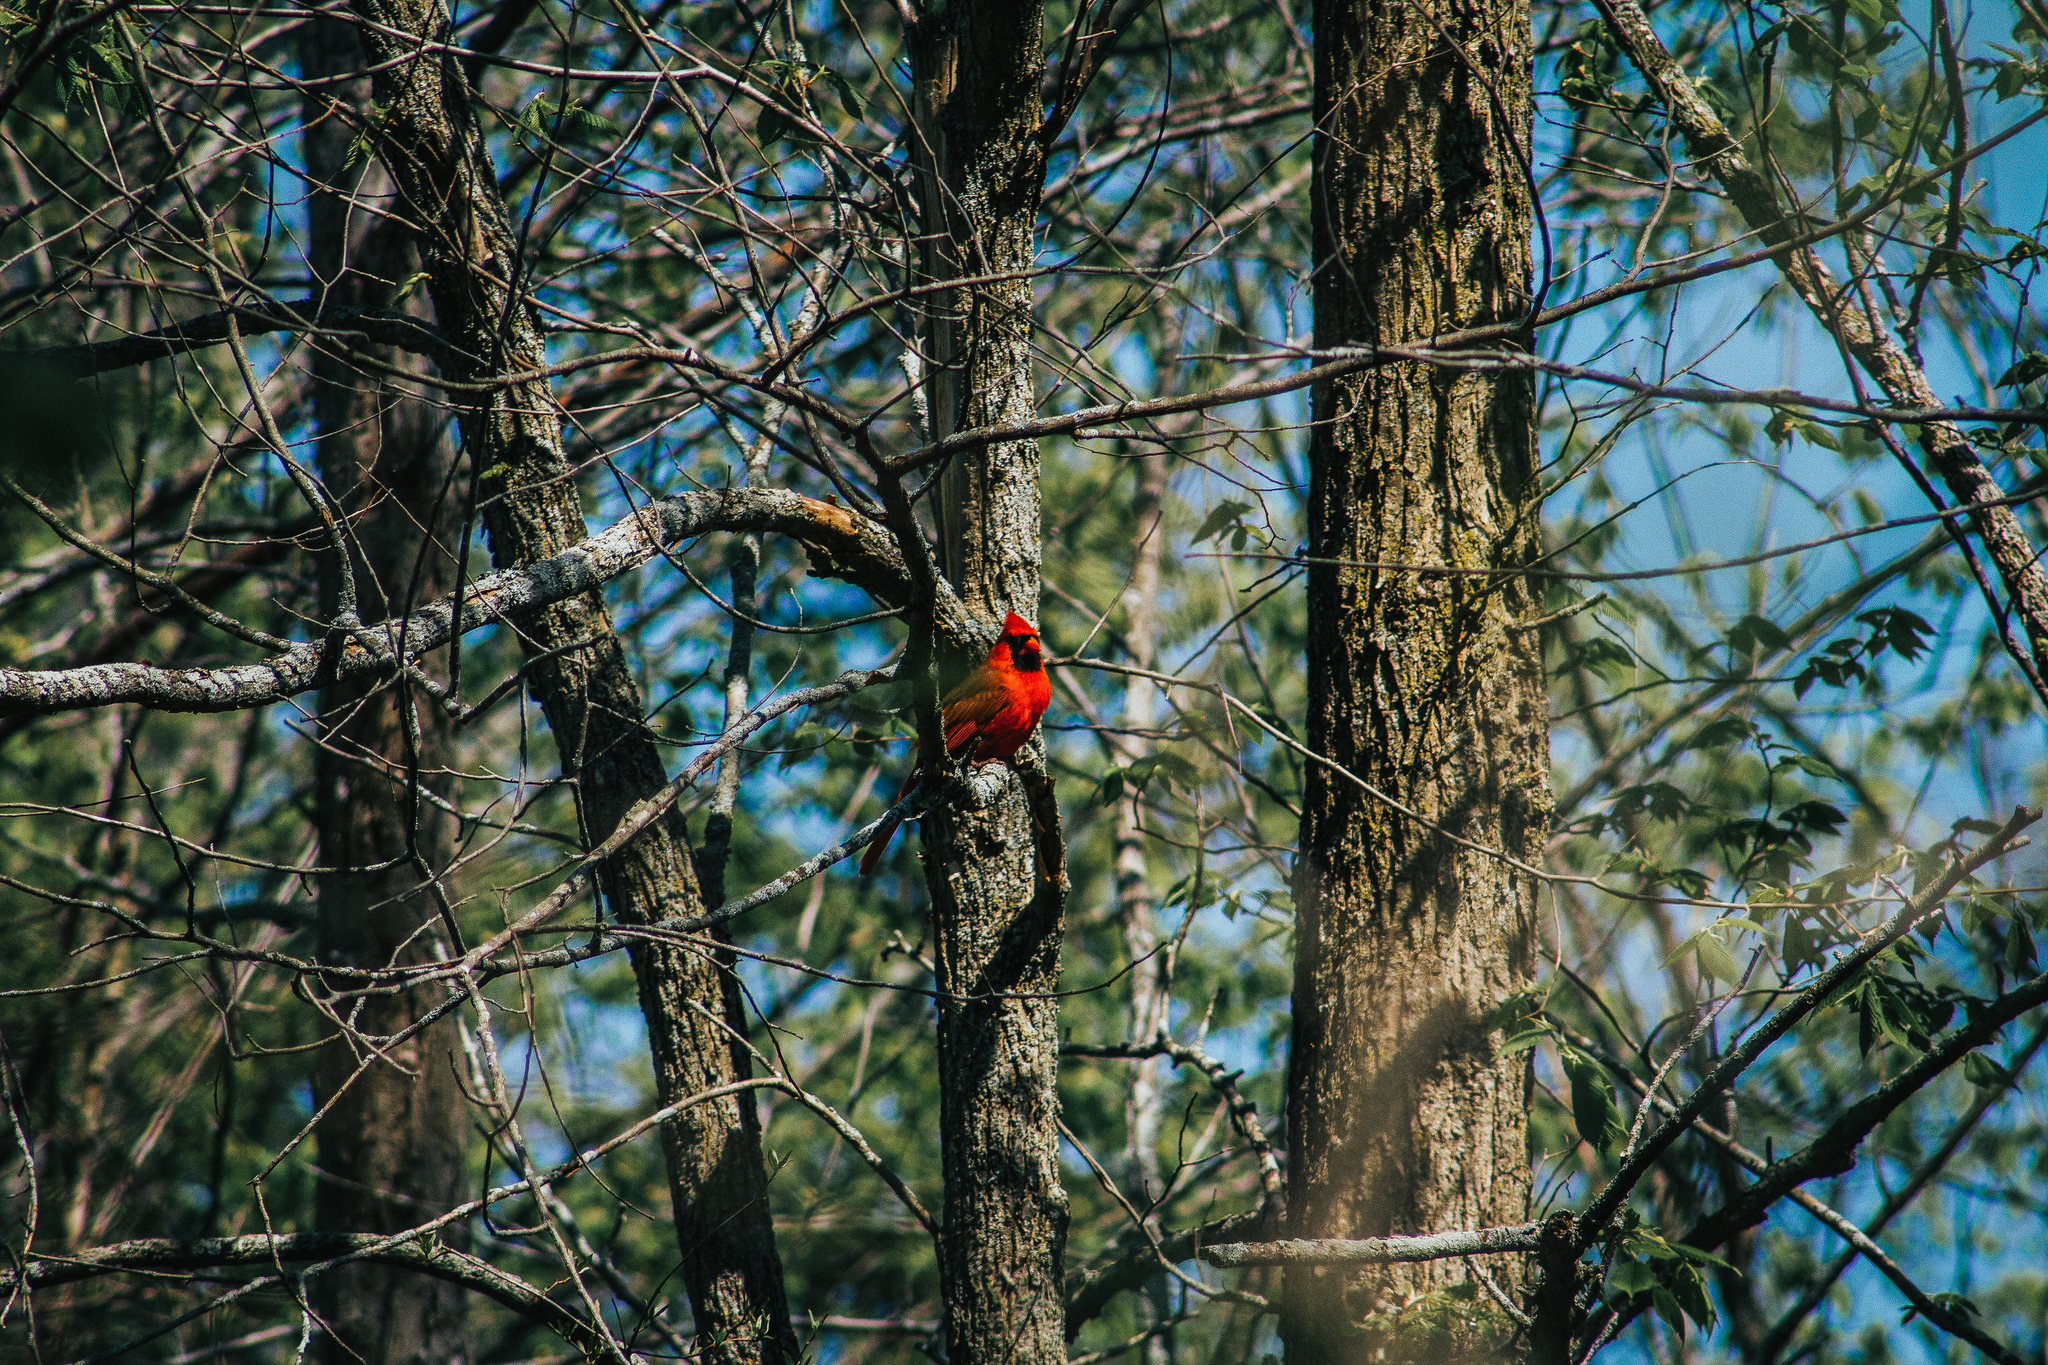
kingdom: Animalia
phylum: Chordata
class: Aves
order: Passeriformes
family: Cardinalidae
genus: Cardinalis
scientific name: Cardinalis cardinalis
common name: Northern cardinal
